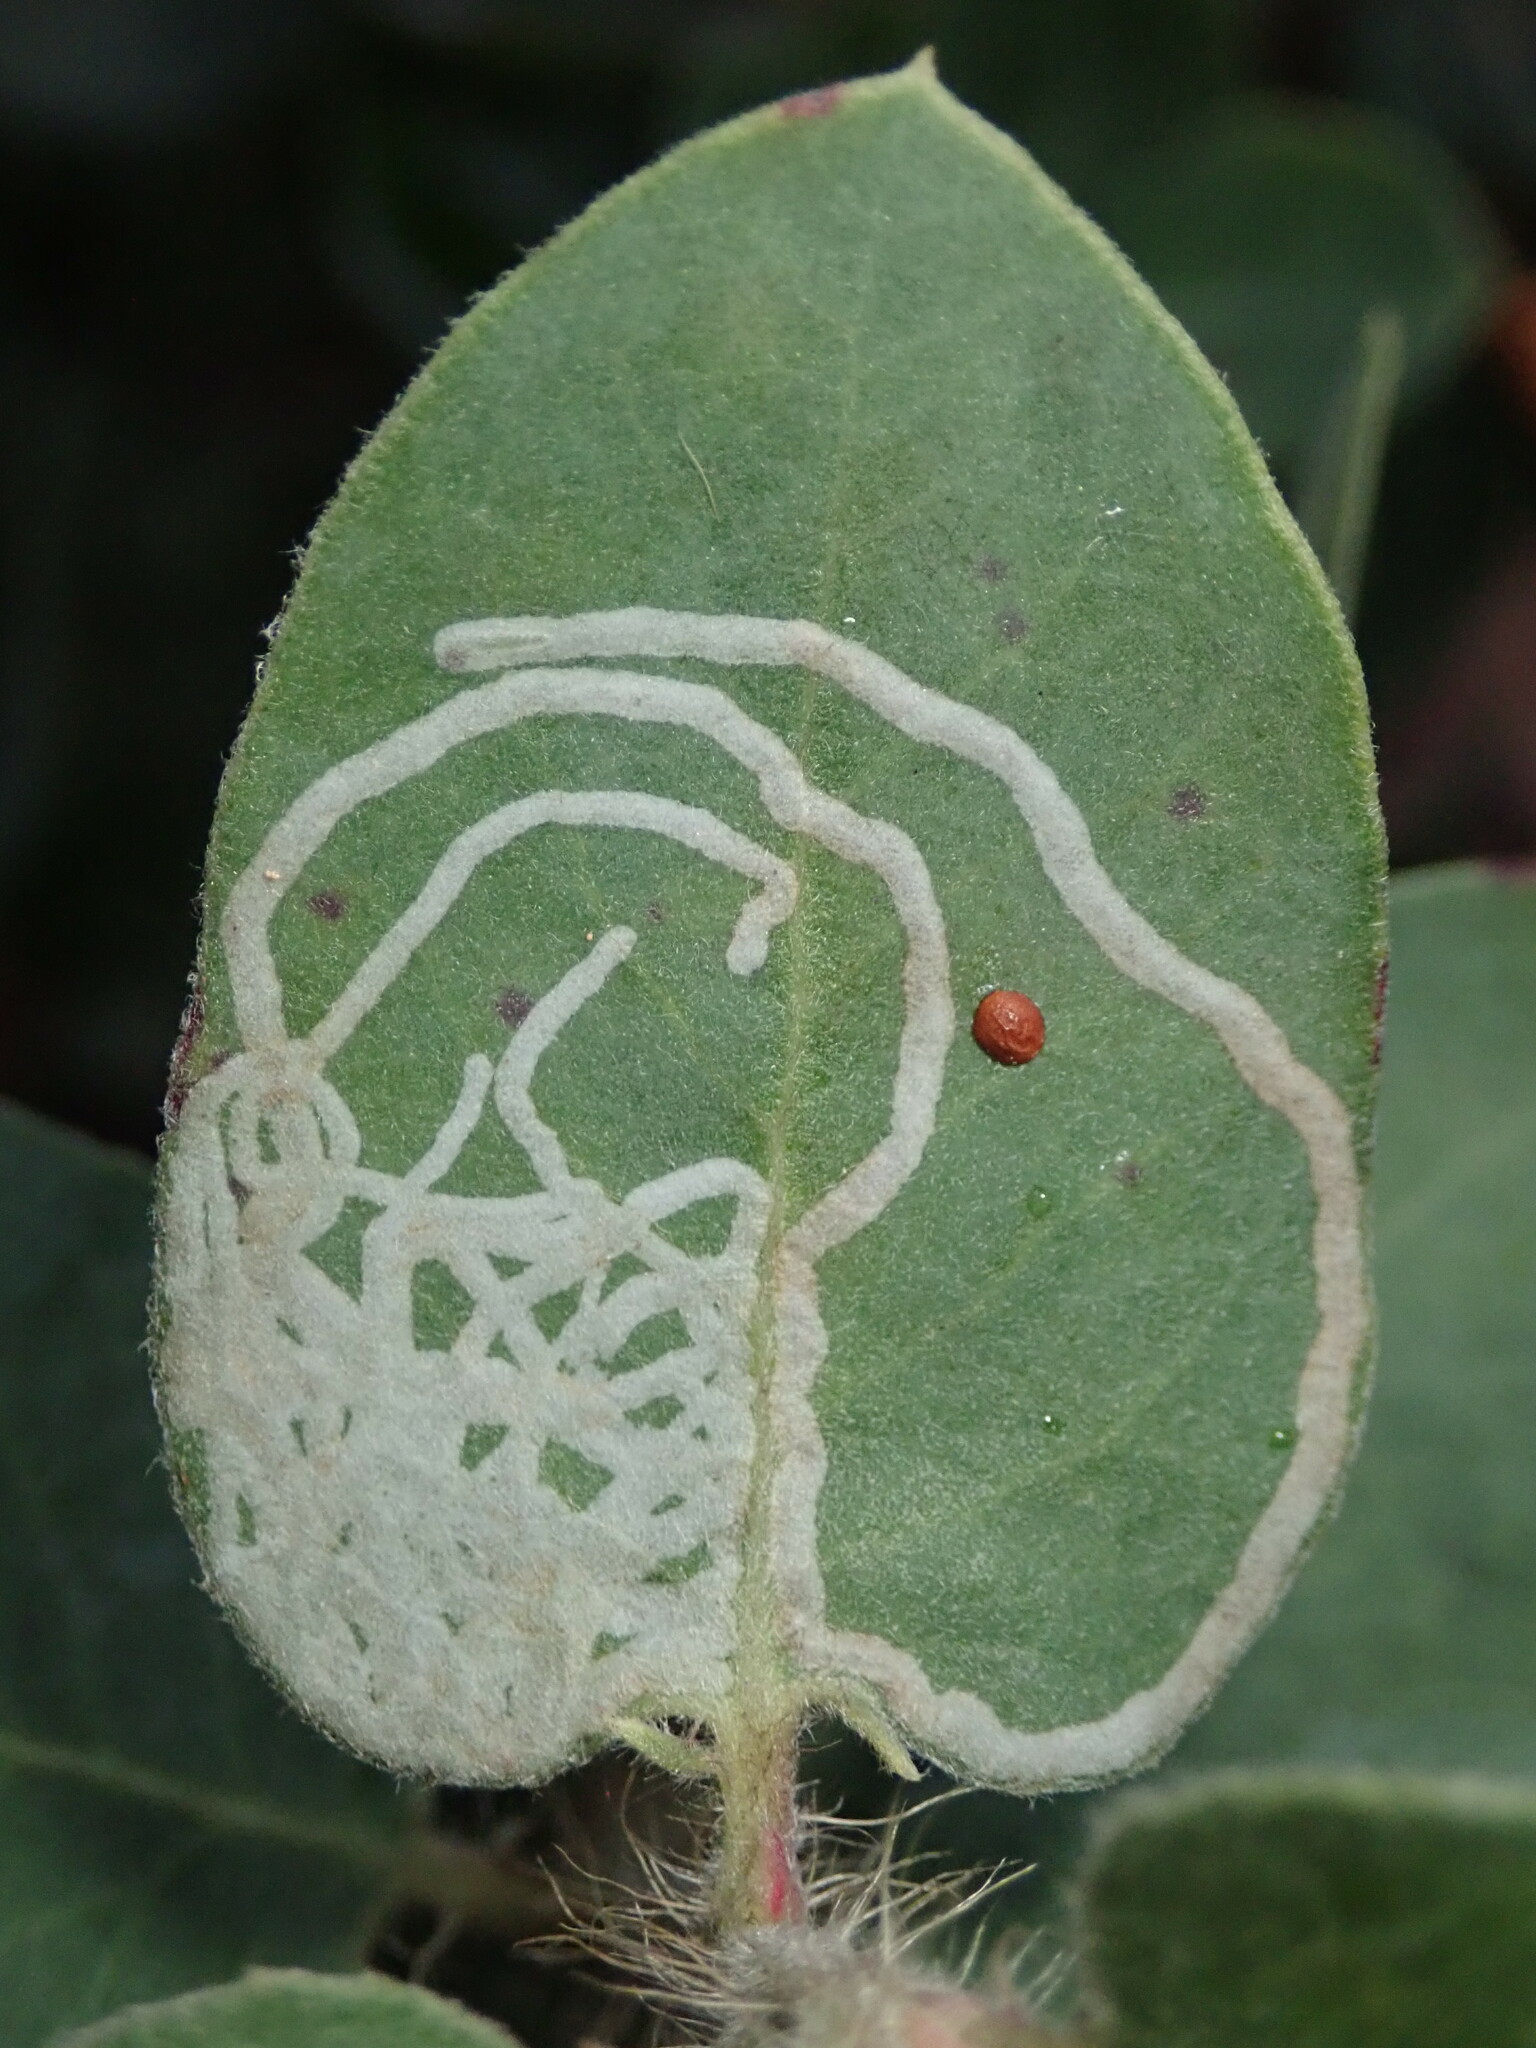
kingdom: Animalia
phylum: Arthropoda
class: Insecta
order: Lepidoptera
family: Gracillariidae
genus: Marmara
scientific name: Marmara arbutiella
